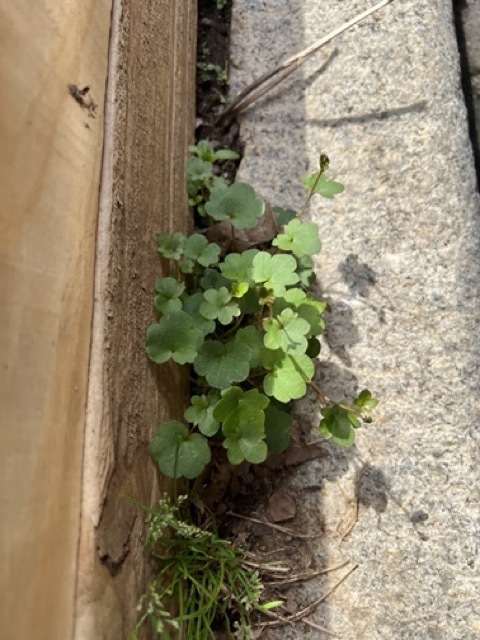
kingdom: Plantae
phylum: Tracheophyta
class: Magnoliopsida
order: Lamiales
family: Plantaginaceae
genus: Cymbalaria
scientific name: Cymbalaria muralis
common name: Ivy-leaved toadflax
